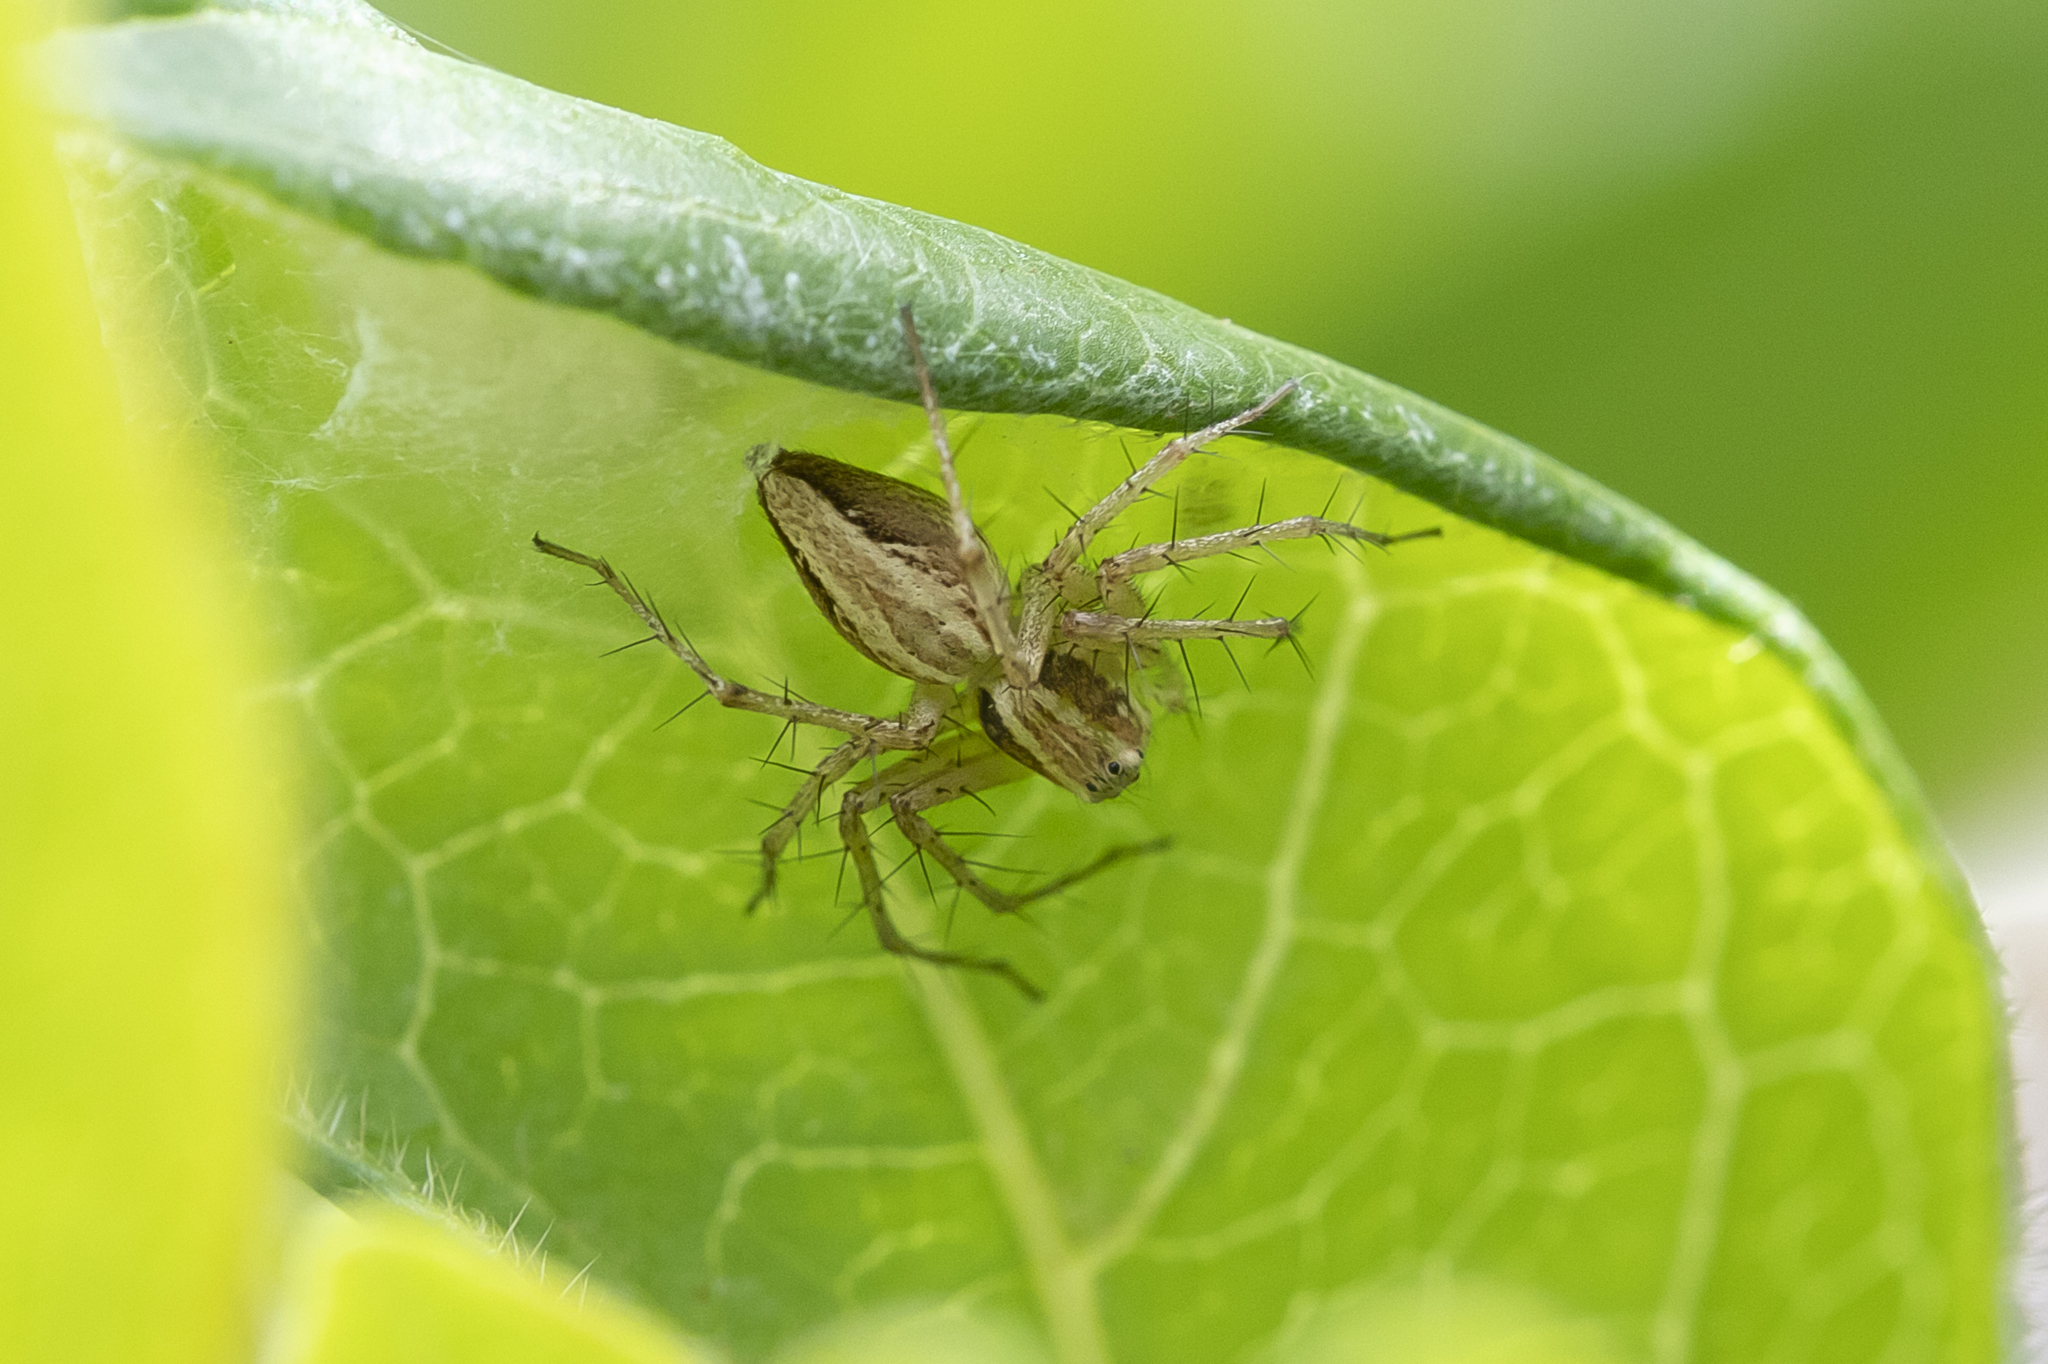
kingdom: Animalia
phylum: Arthropoda
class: Arachnida
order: Araneae
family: Oxyopidae
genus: Oxyopes
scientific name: Oxyopes gracilipes
